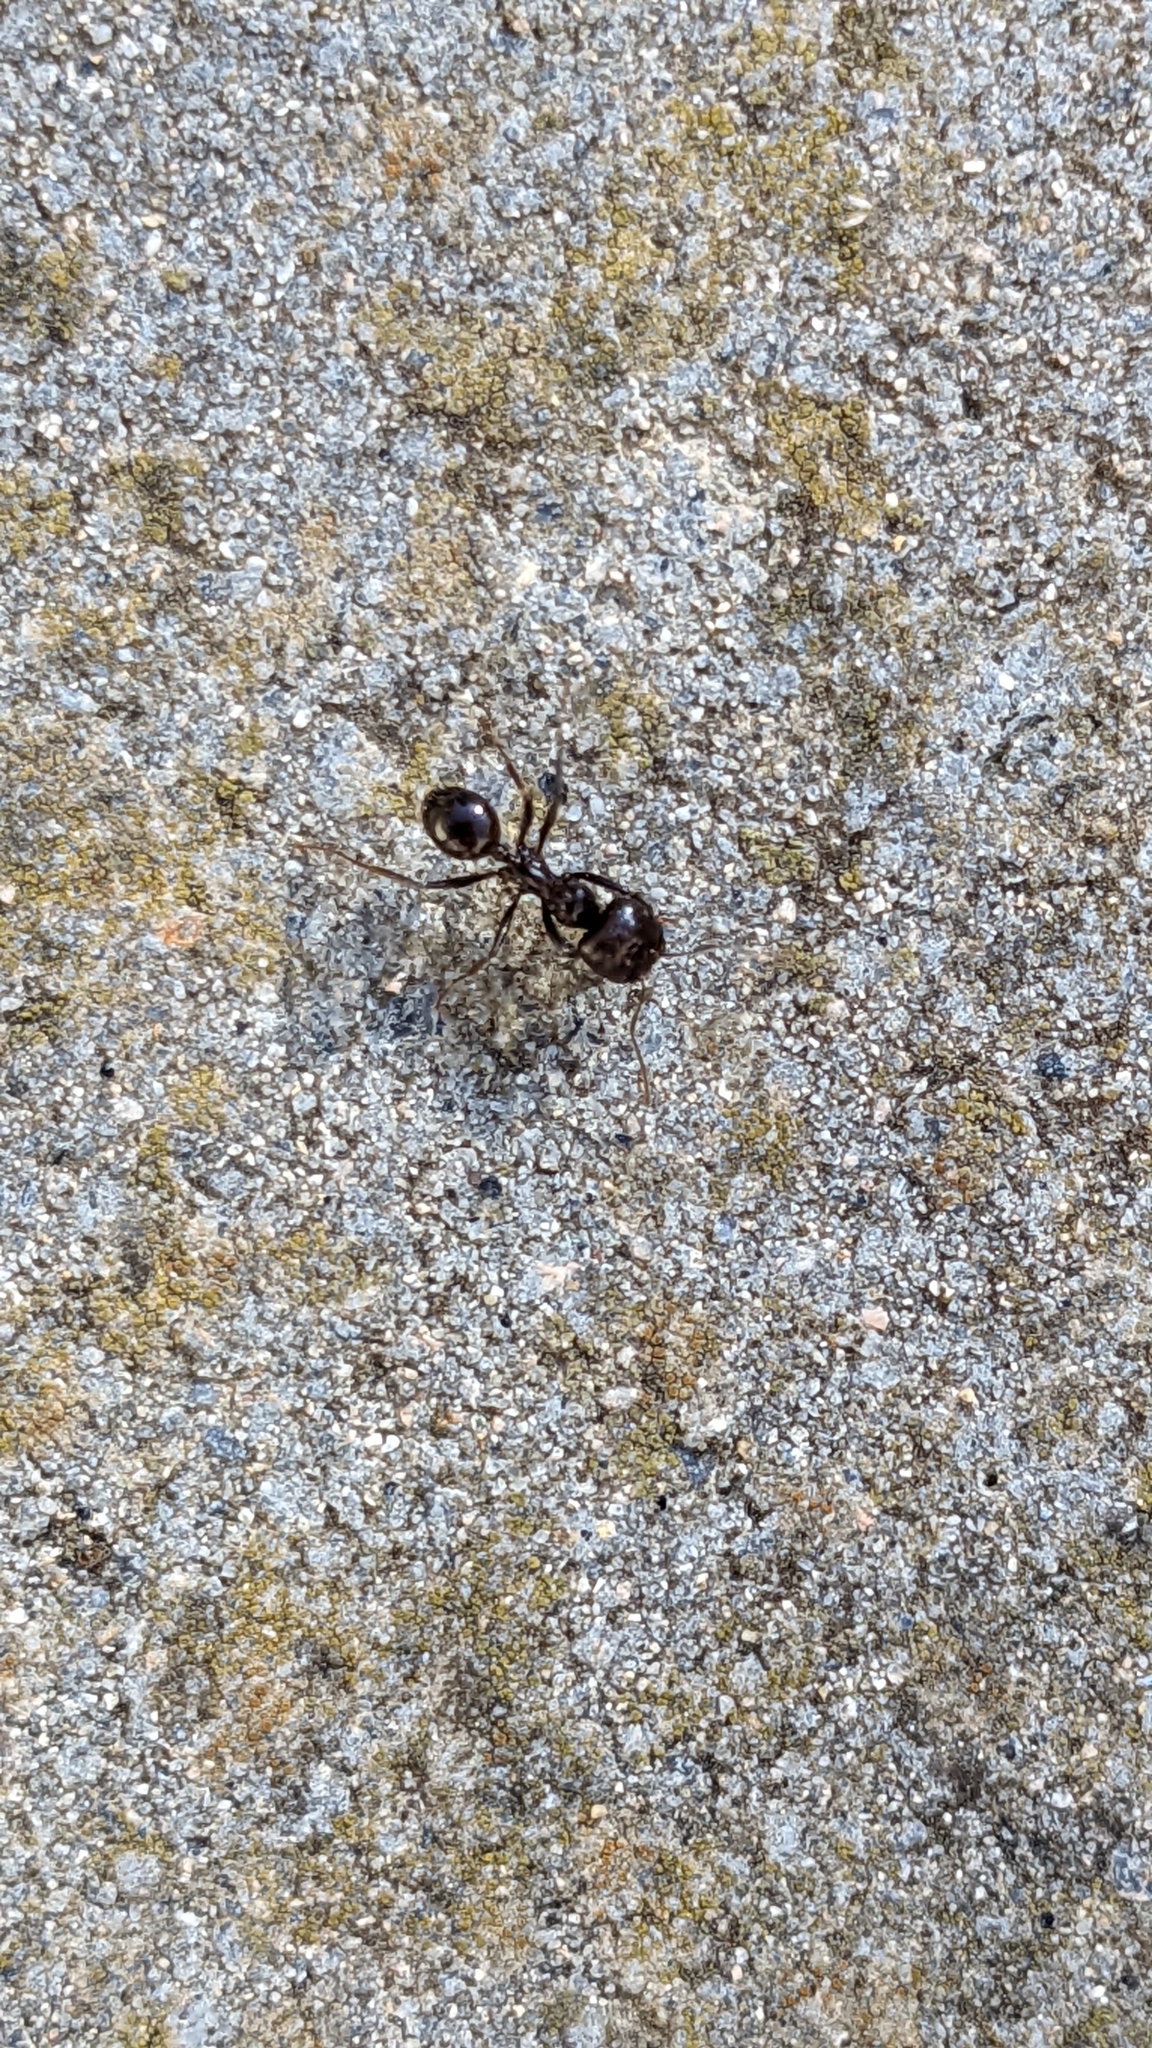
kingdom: Animalia
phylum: Arthropoda
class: Insecta
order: Hymenoptera
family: Formicidae
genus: Messor
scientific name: Messor barbarus
